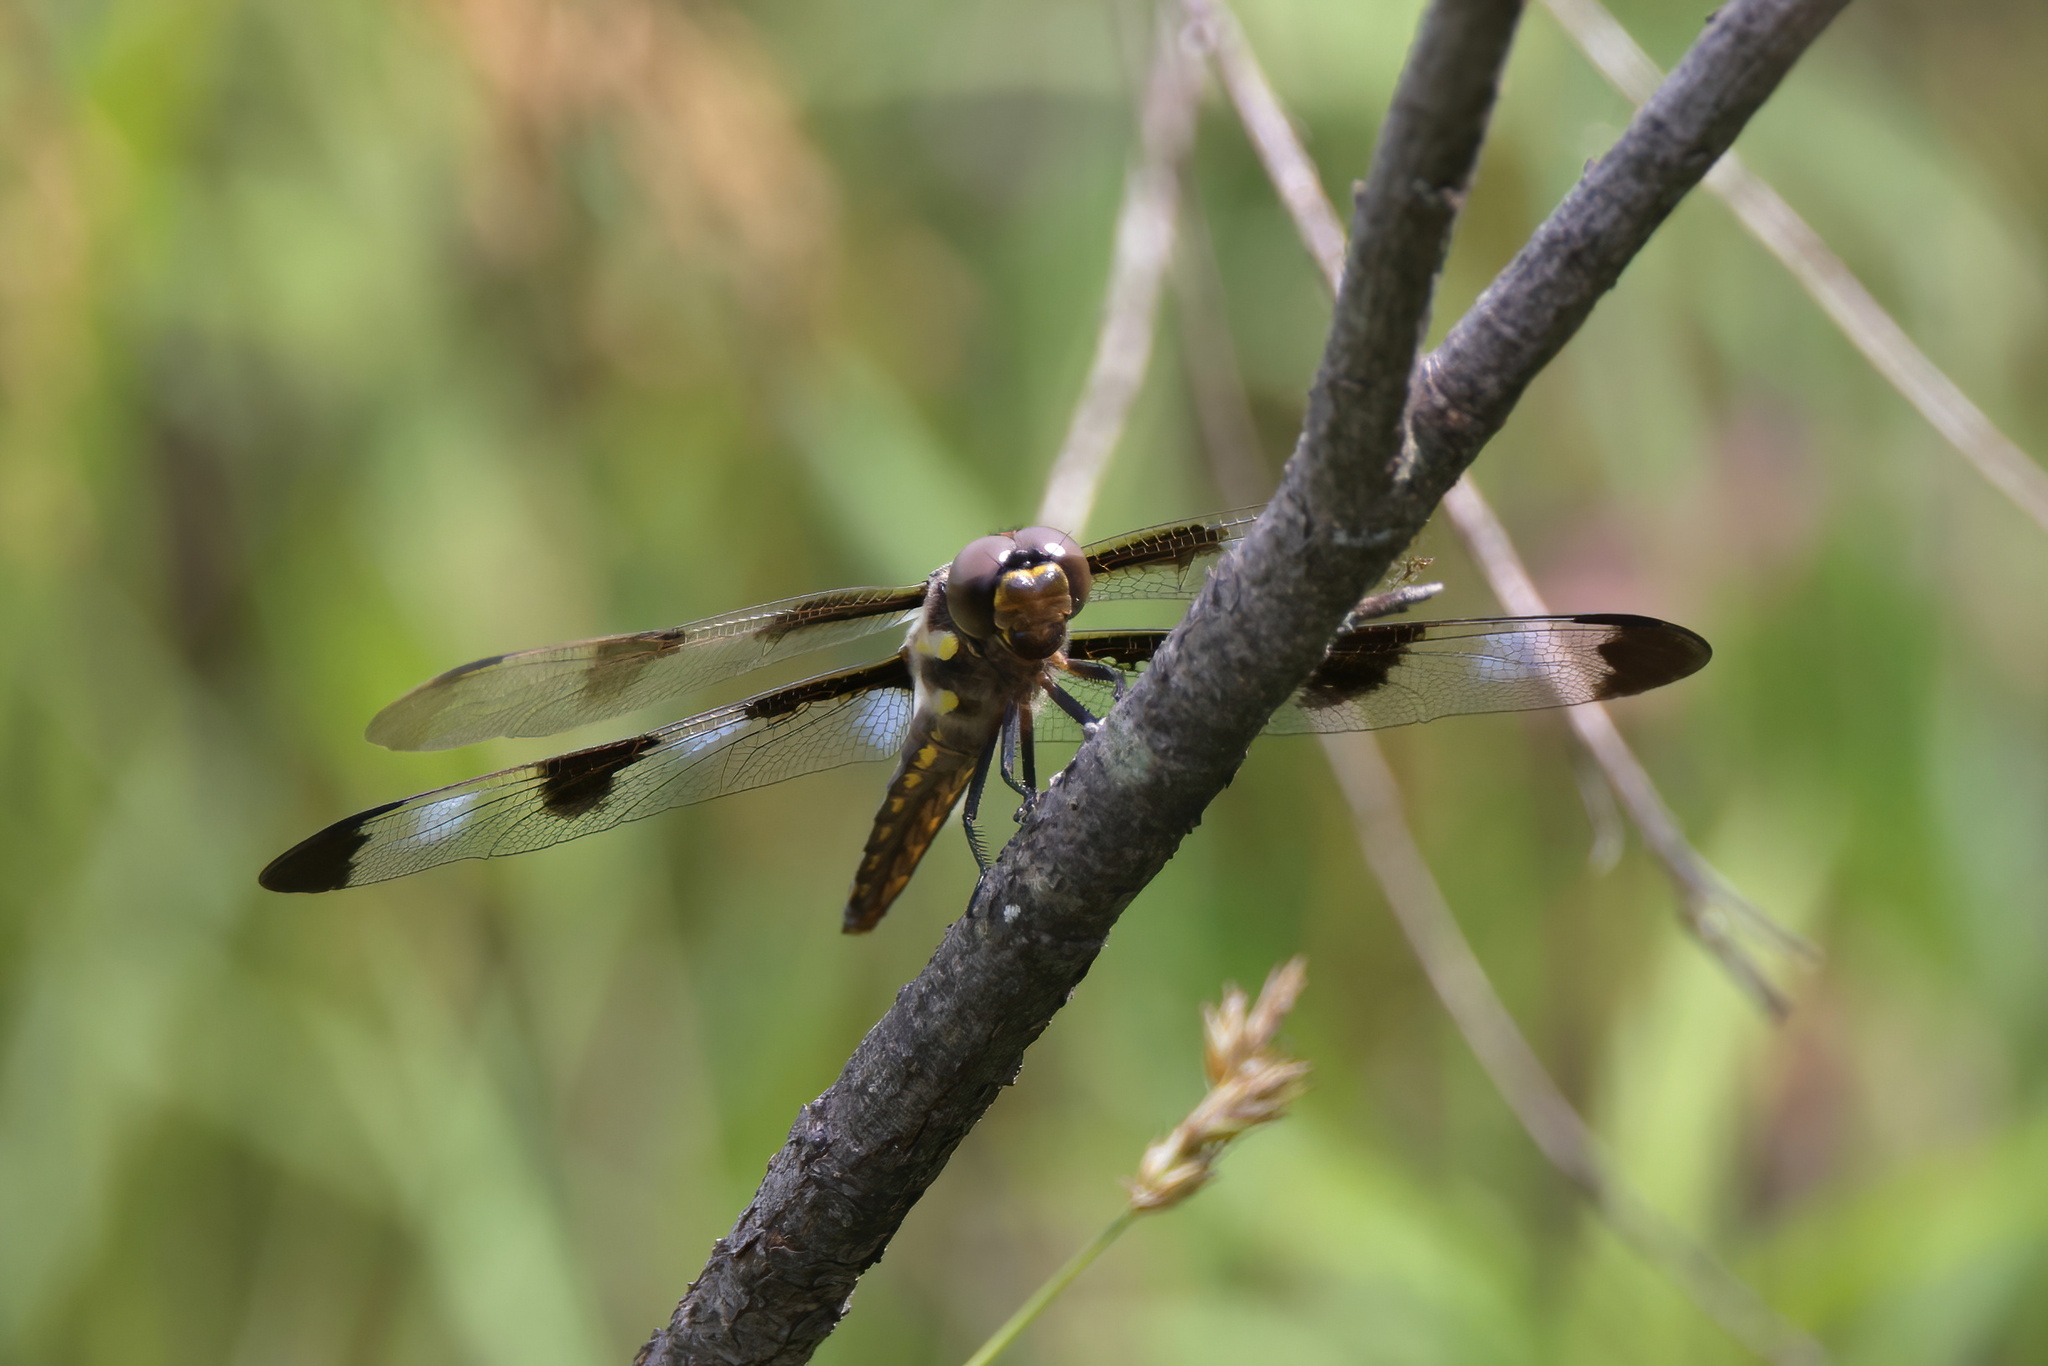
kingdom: Animalia
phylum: Arthropoda
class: Insecta
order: Odonata
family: Libellulidae
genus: Libellula
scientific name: Libellula pulchella
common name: Twelve-spotted skimmer
